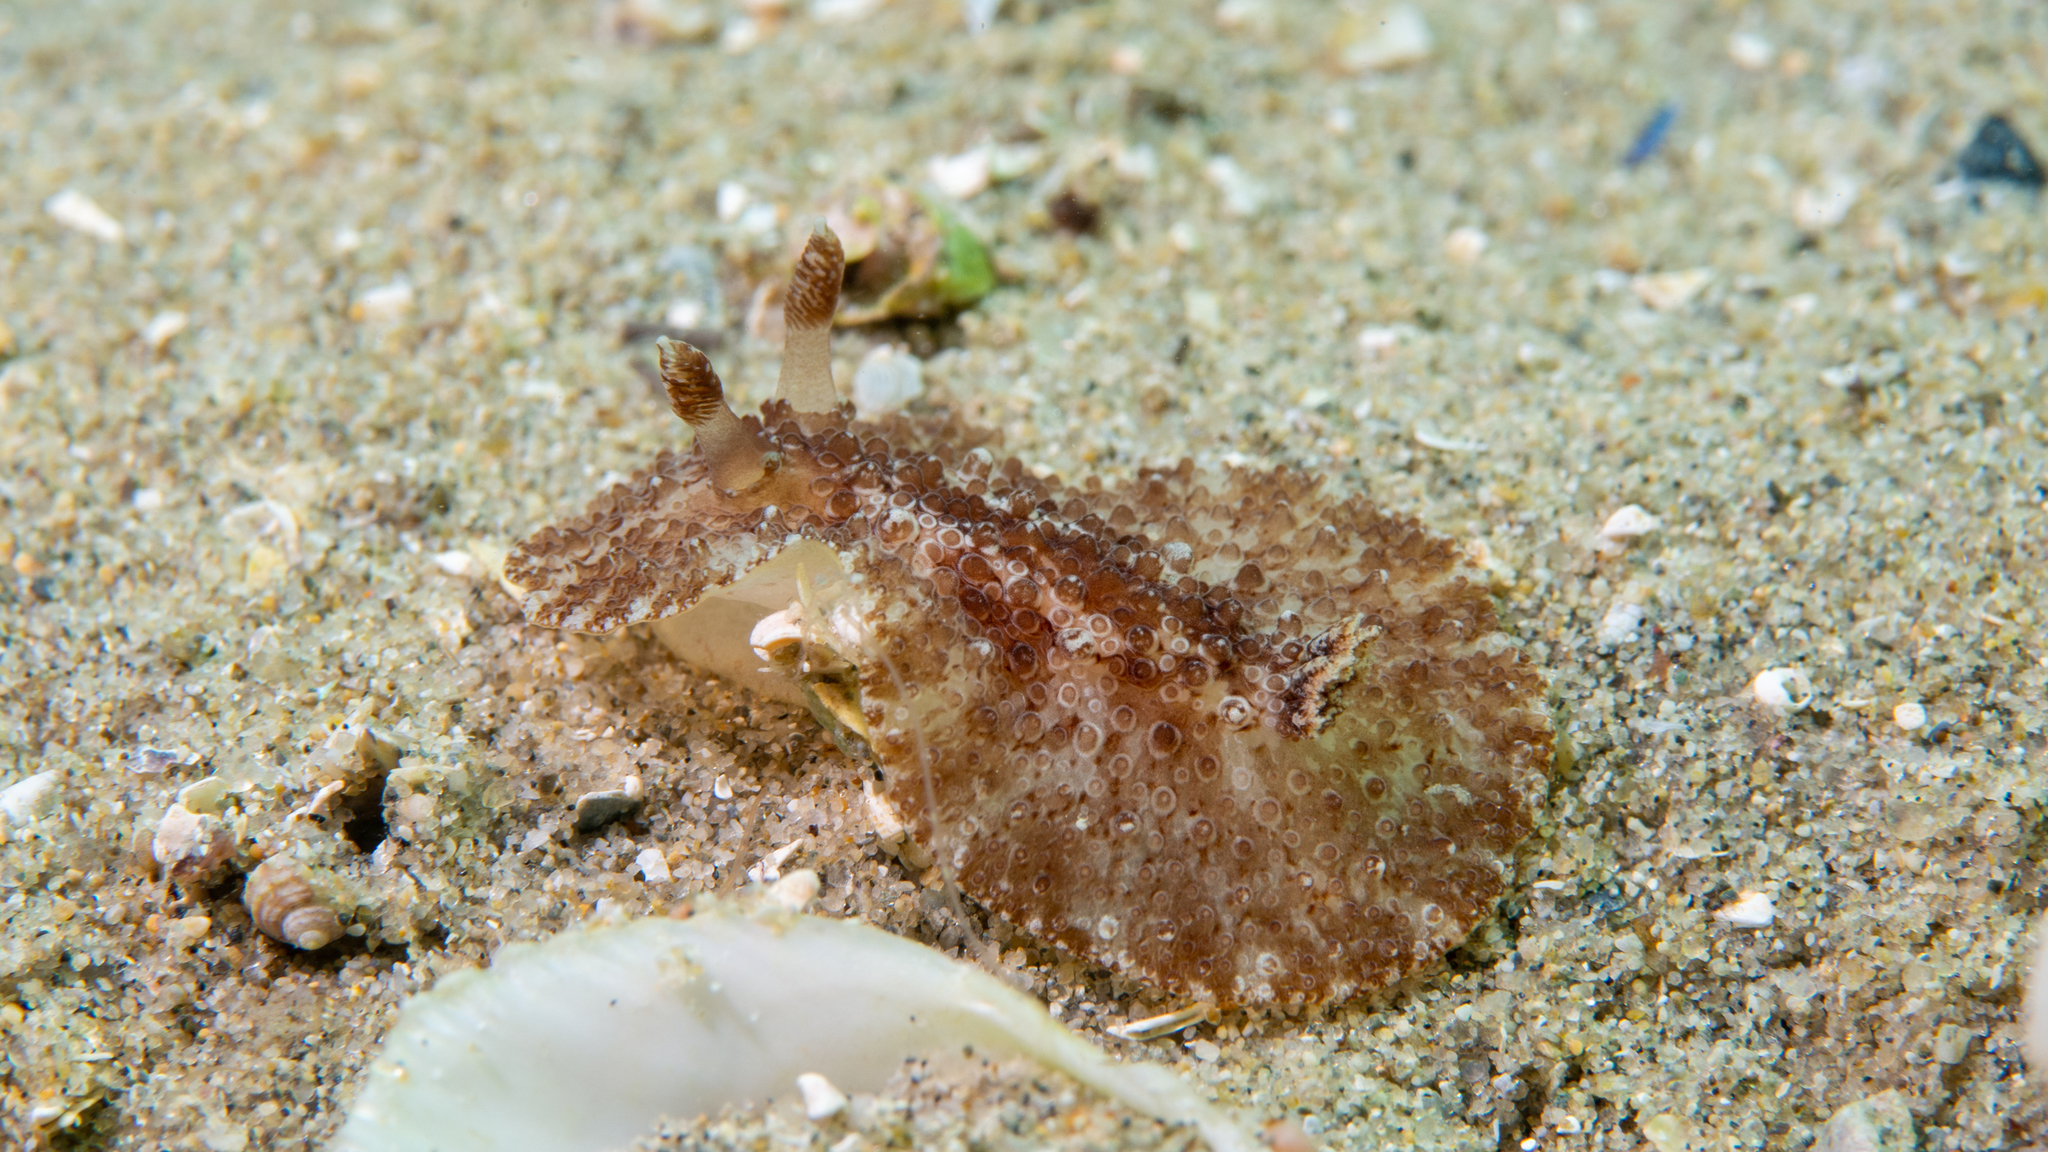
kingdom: Animalia
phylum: Mollusca
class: Gastropoda
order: Nudibranchia
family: Discodorididae
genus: Carminodoris
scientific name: Carminodoris nodulosa
